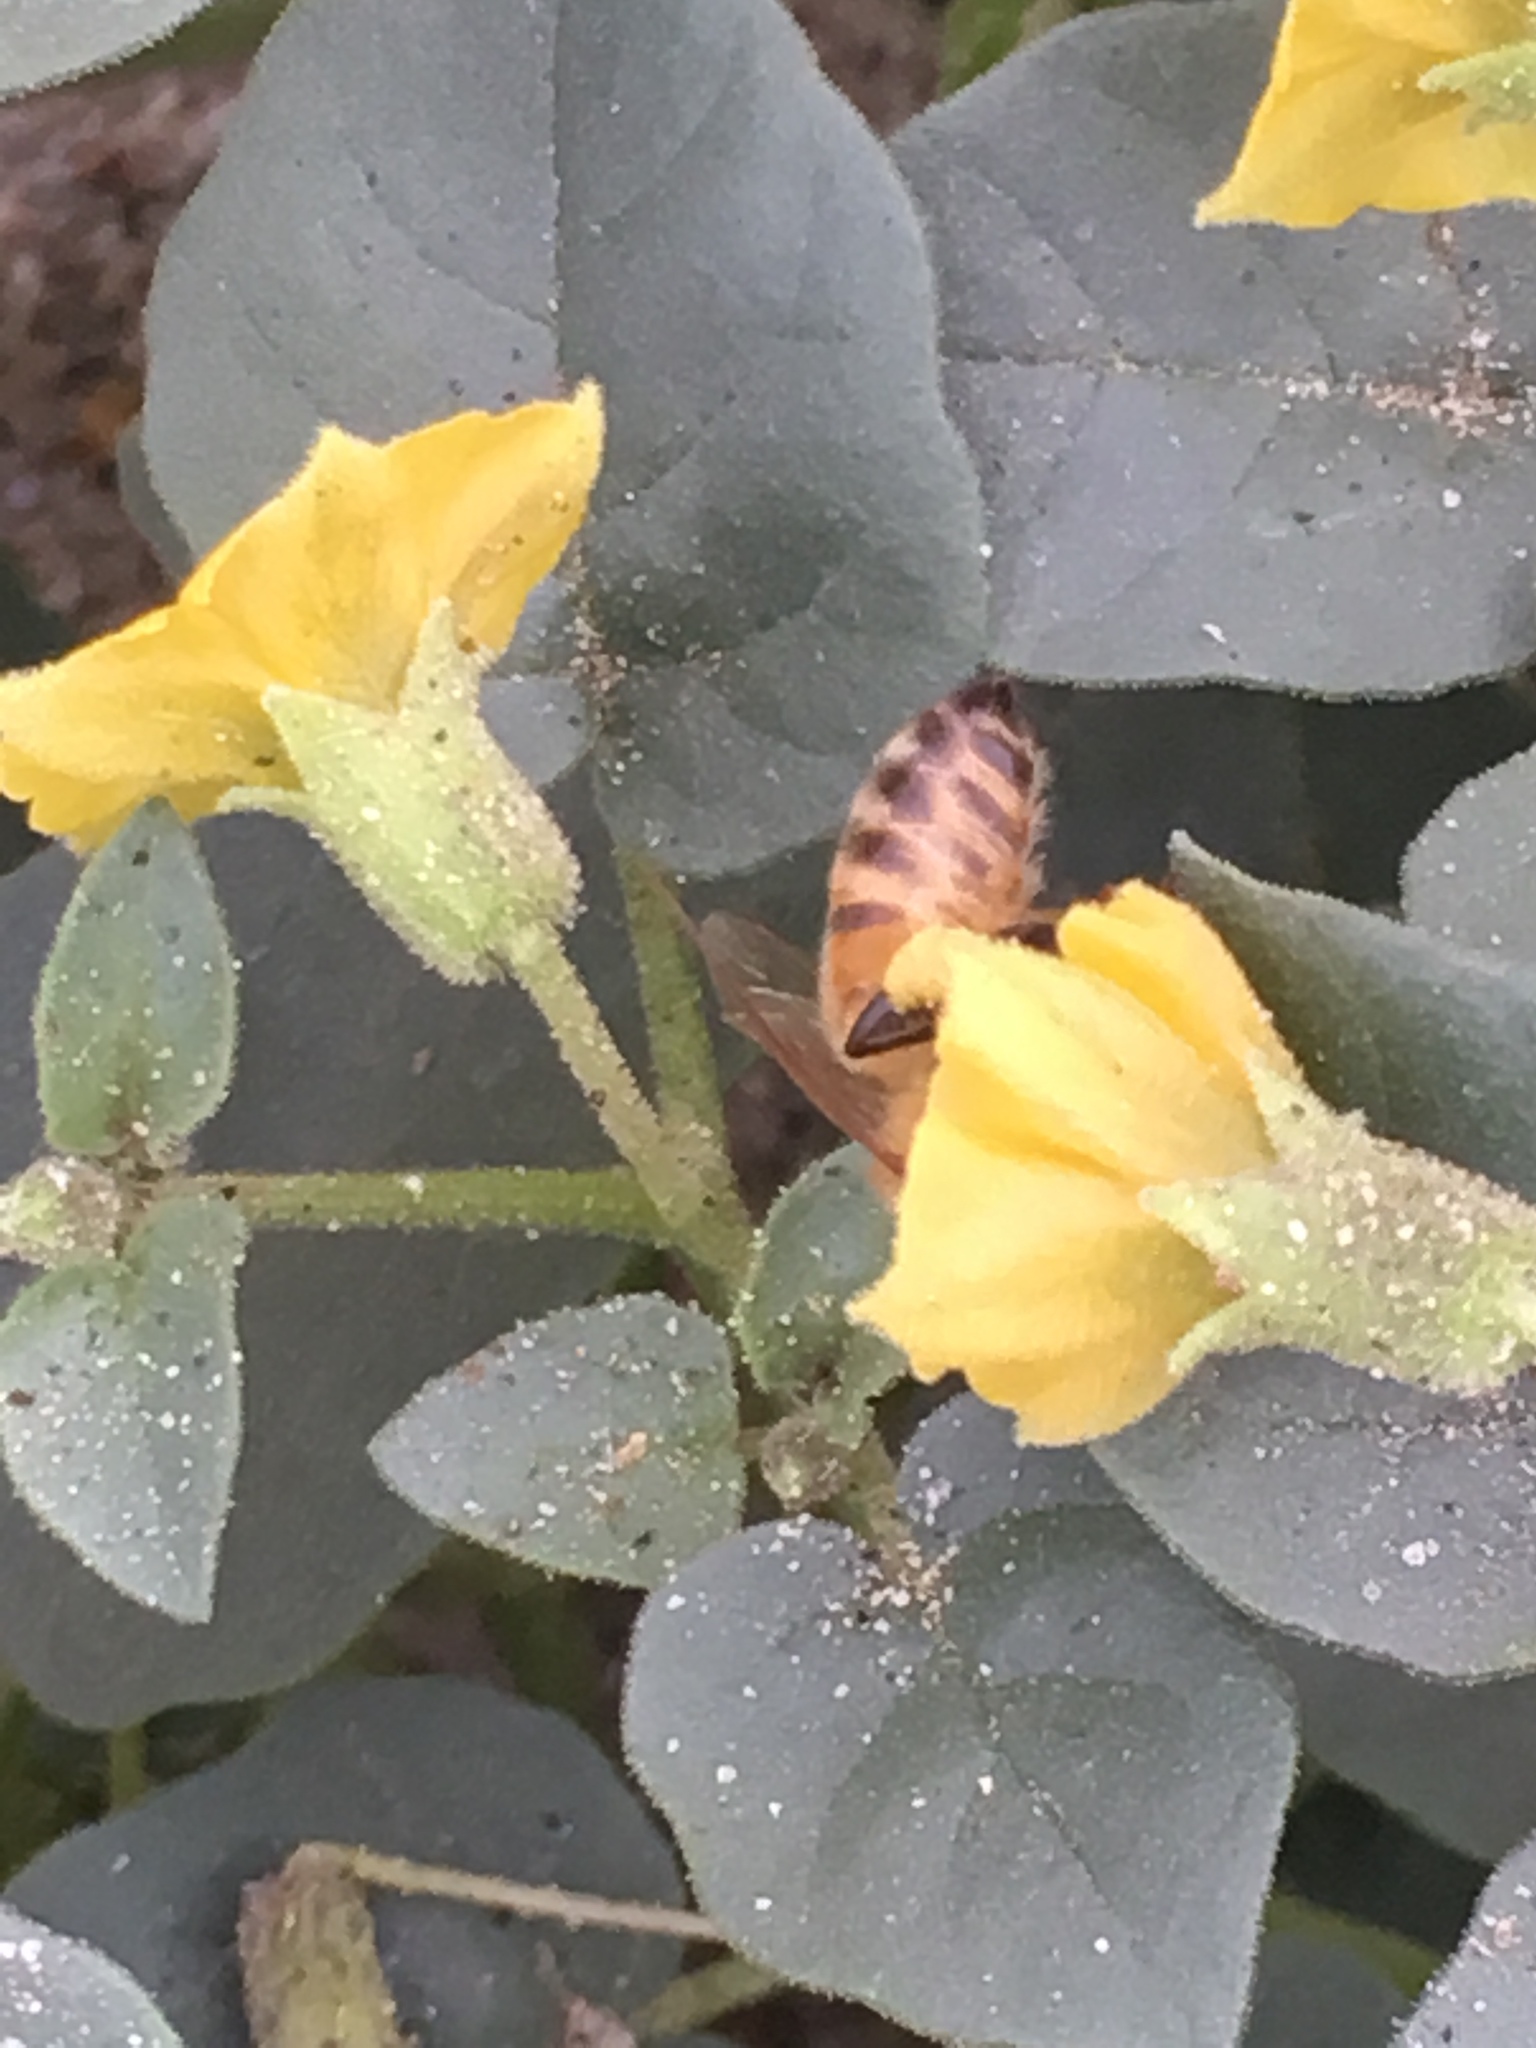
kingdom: Animalia
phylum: Arthropoda
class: Insecta
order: Hymenoptera
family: Apidae
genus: Apis
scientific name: Apis mellifera
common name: Honey bee
